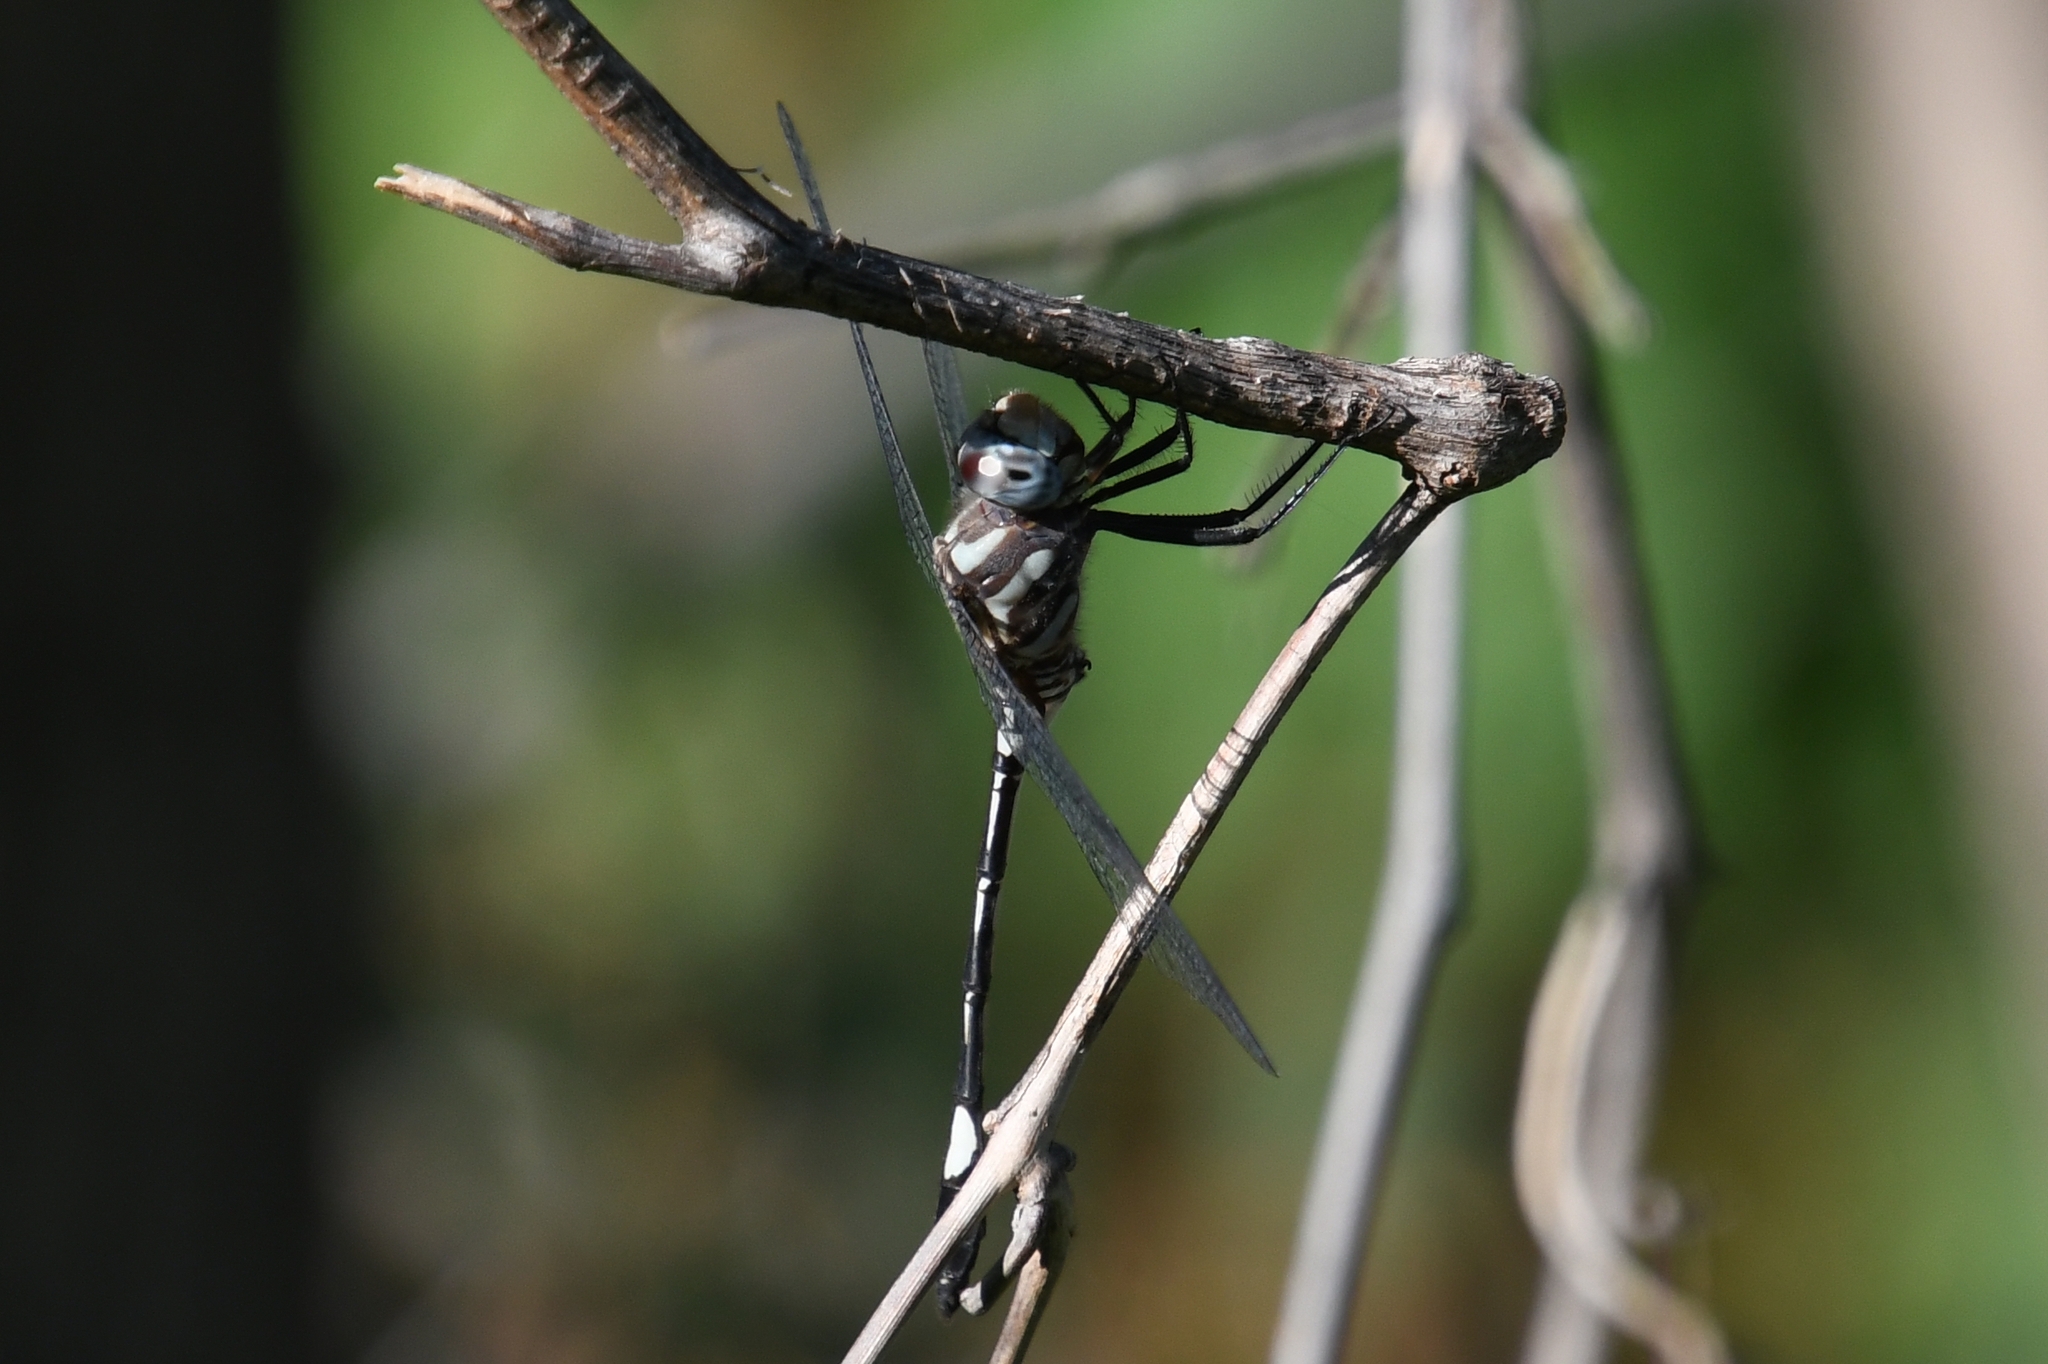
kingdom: Animalia
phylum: Arthropoda
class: Insecta
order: Odonata
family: Libellulidae
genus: Brechmorhoga
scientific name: Brechmorhoga mendax
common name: Pale-faced clubskimmer
